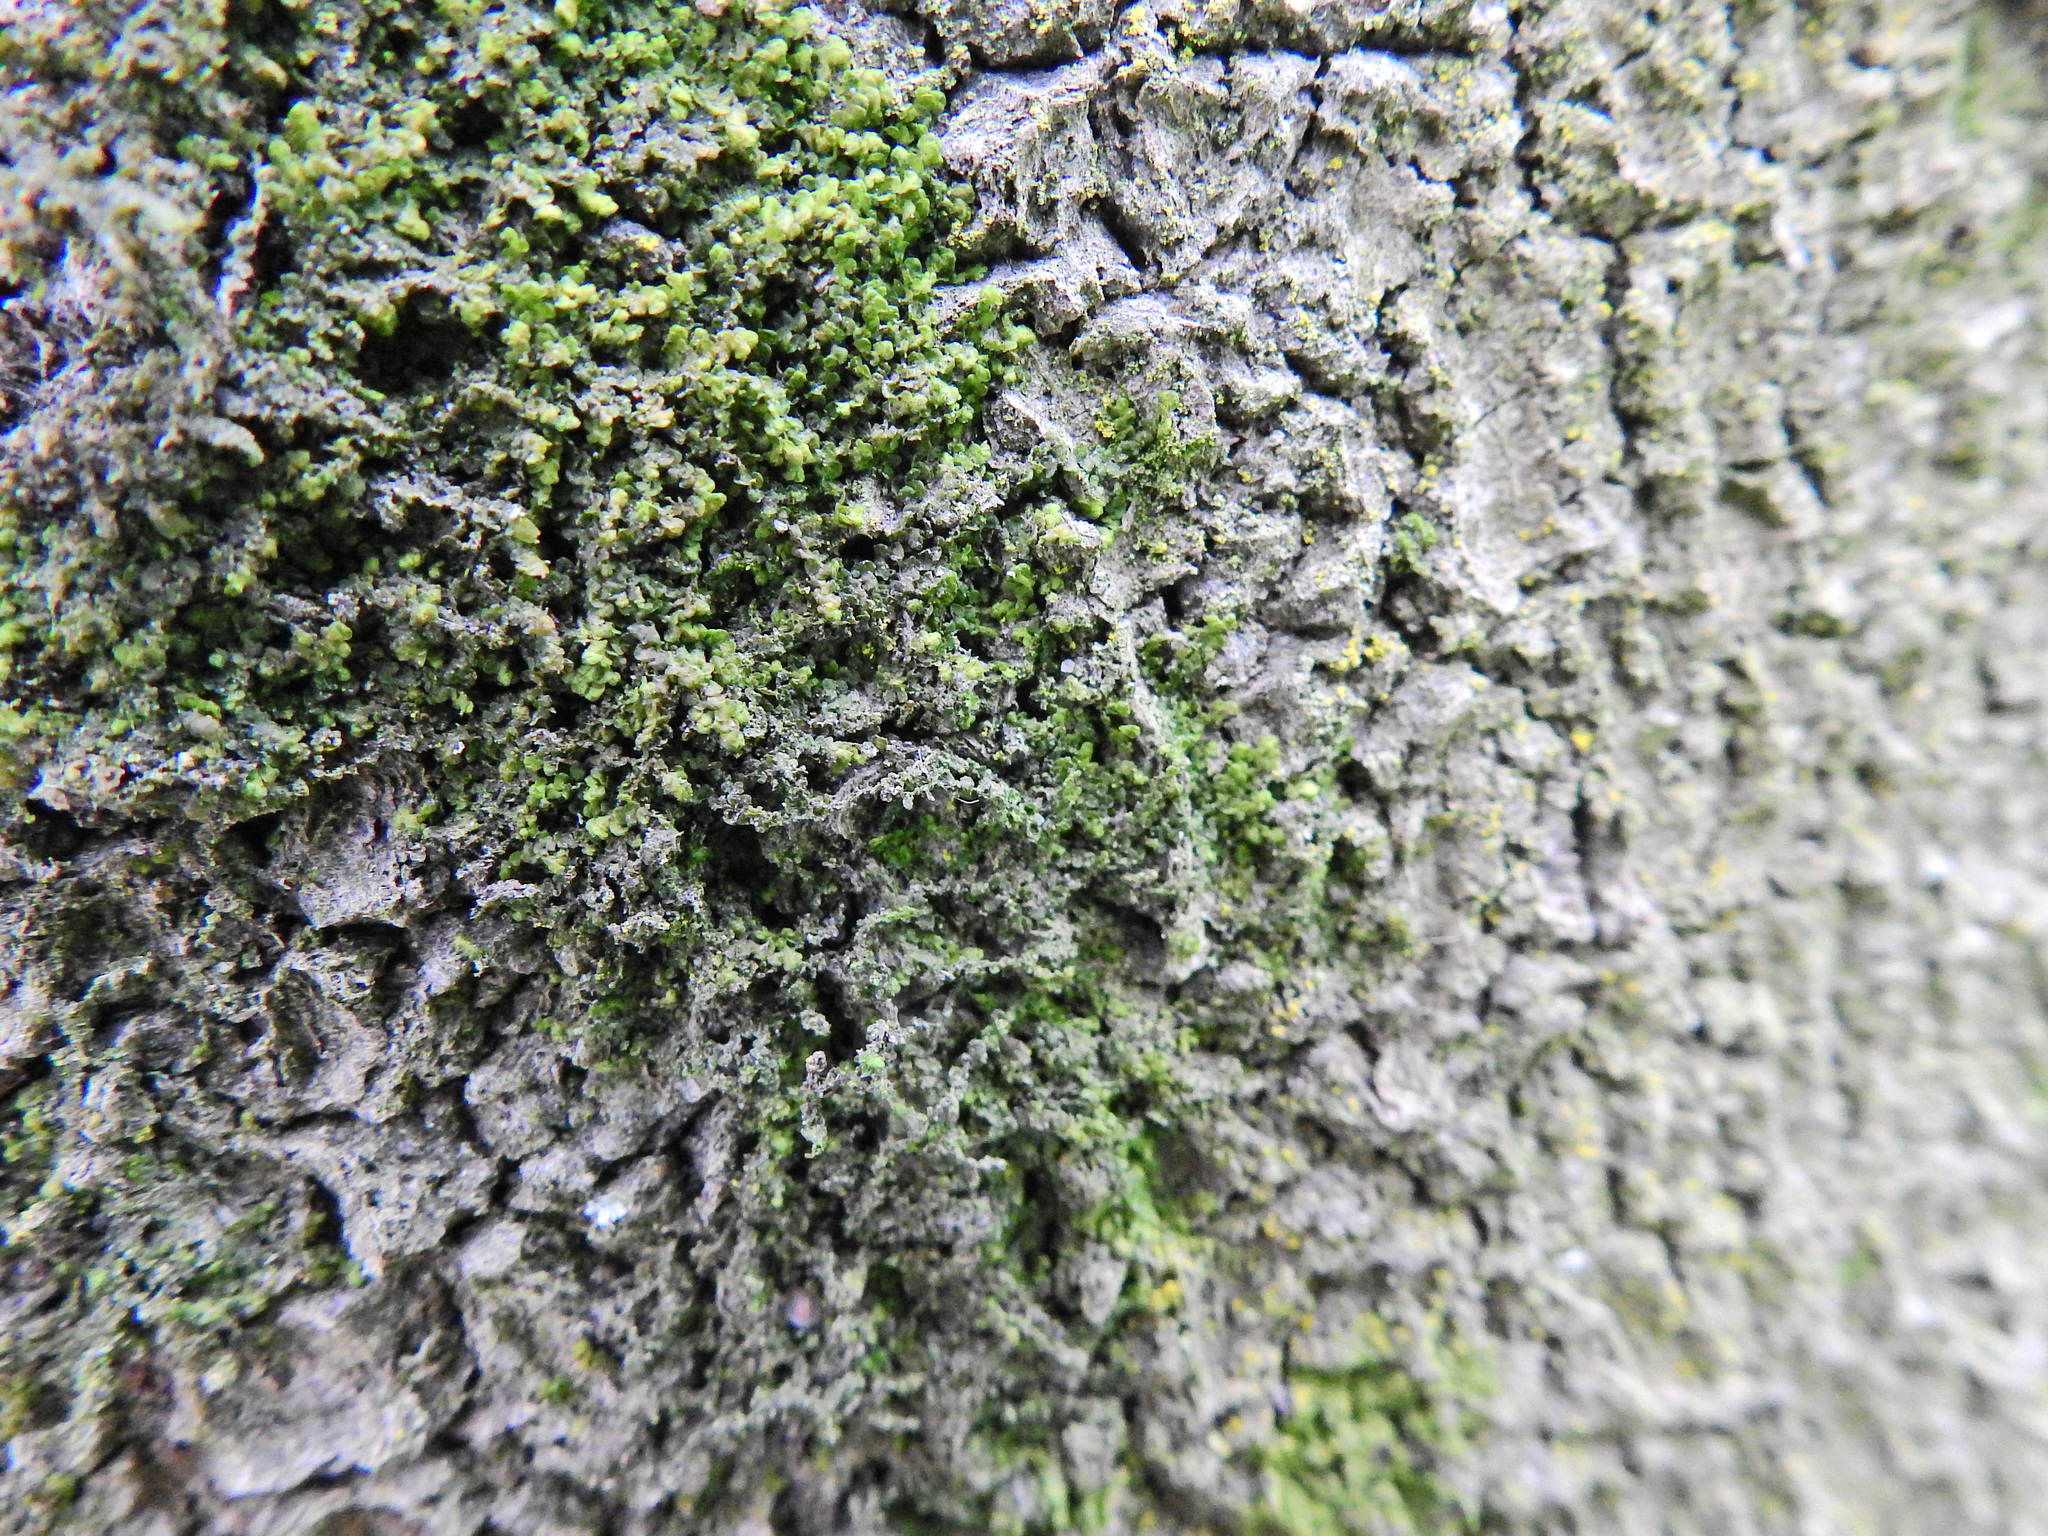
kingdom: Plantae
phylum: Marchantiophyta
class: Jungermanniopsida
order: Porellales
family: Frullaniaceae
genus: Frullania
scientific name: Frullania dilatata
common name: Dilated scalewort
